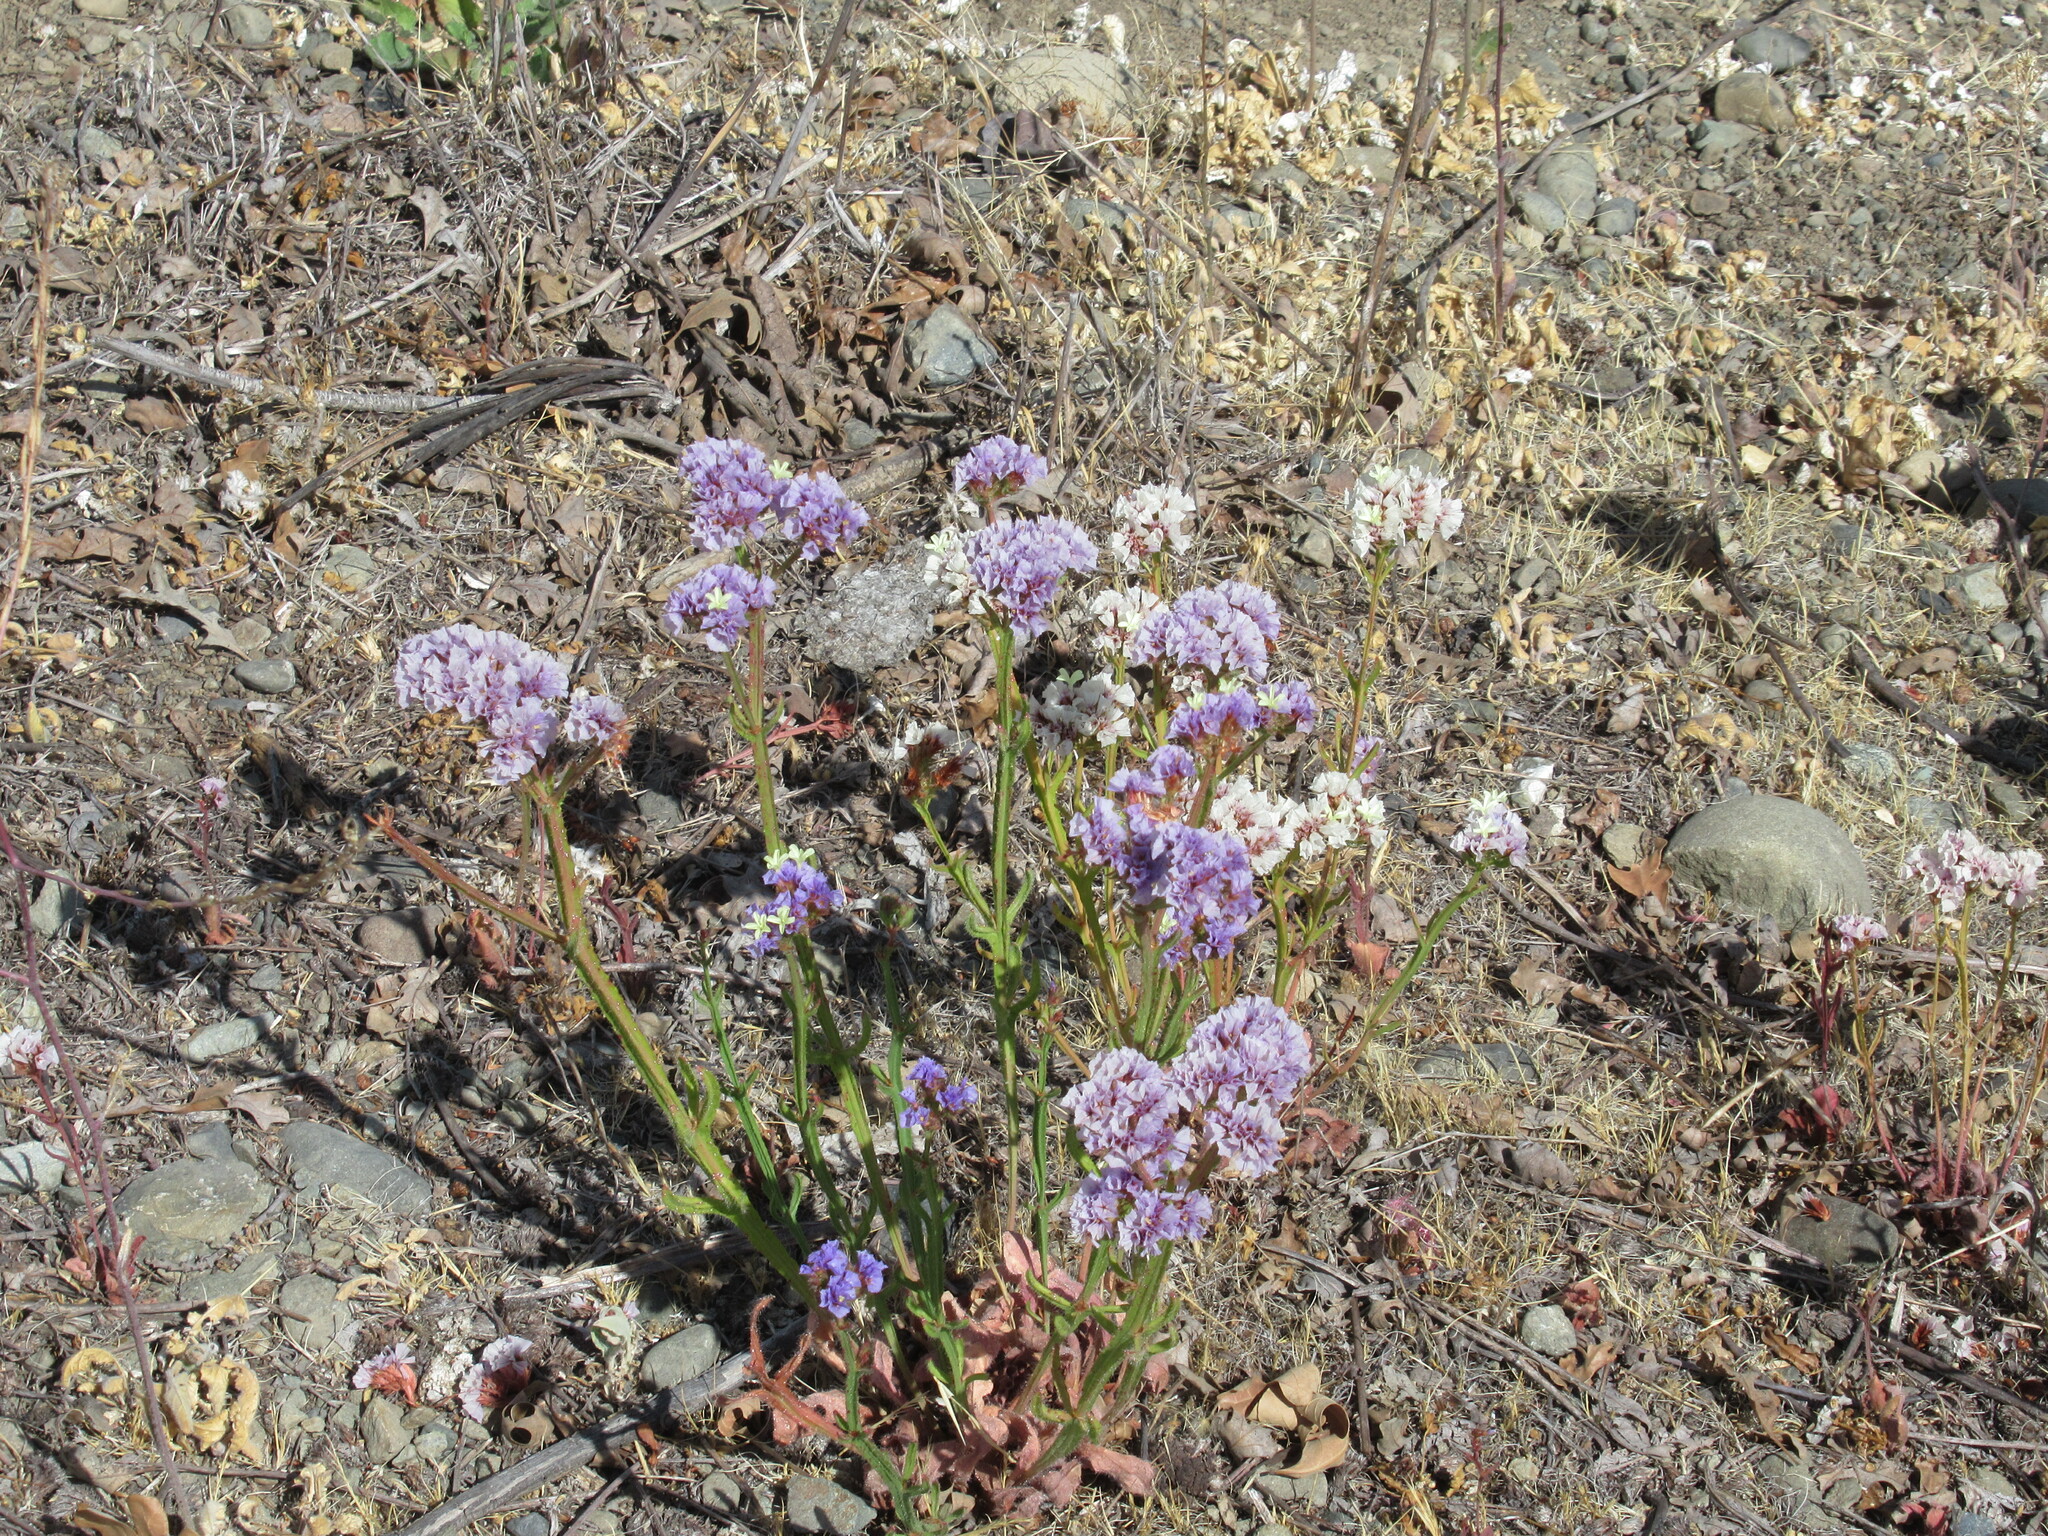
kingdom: Plantae
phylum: Tracheophyta
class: Magnoliopsida
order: Caryophyllales
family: Plumbaginaceae
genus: Limonium
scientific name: Limonium sinuatum
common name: Statice
